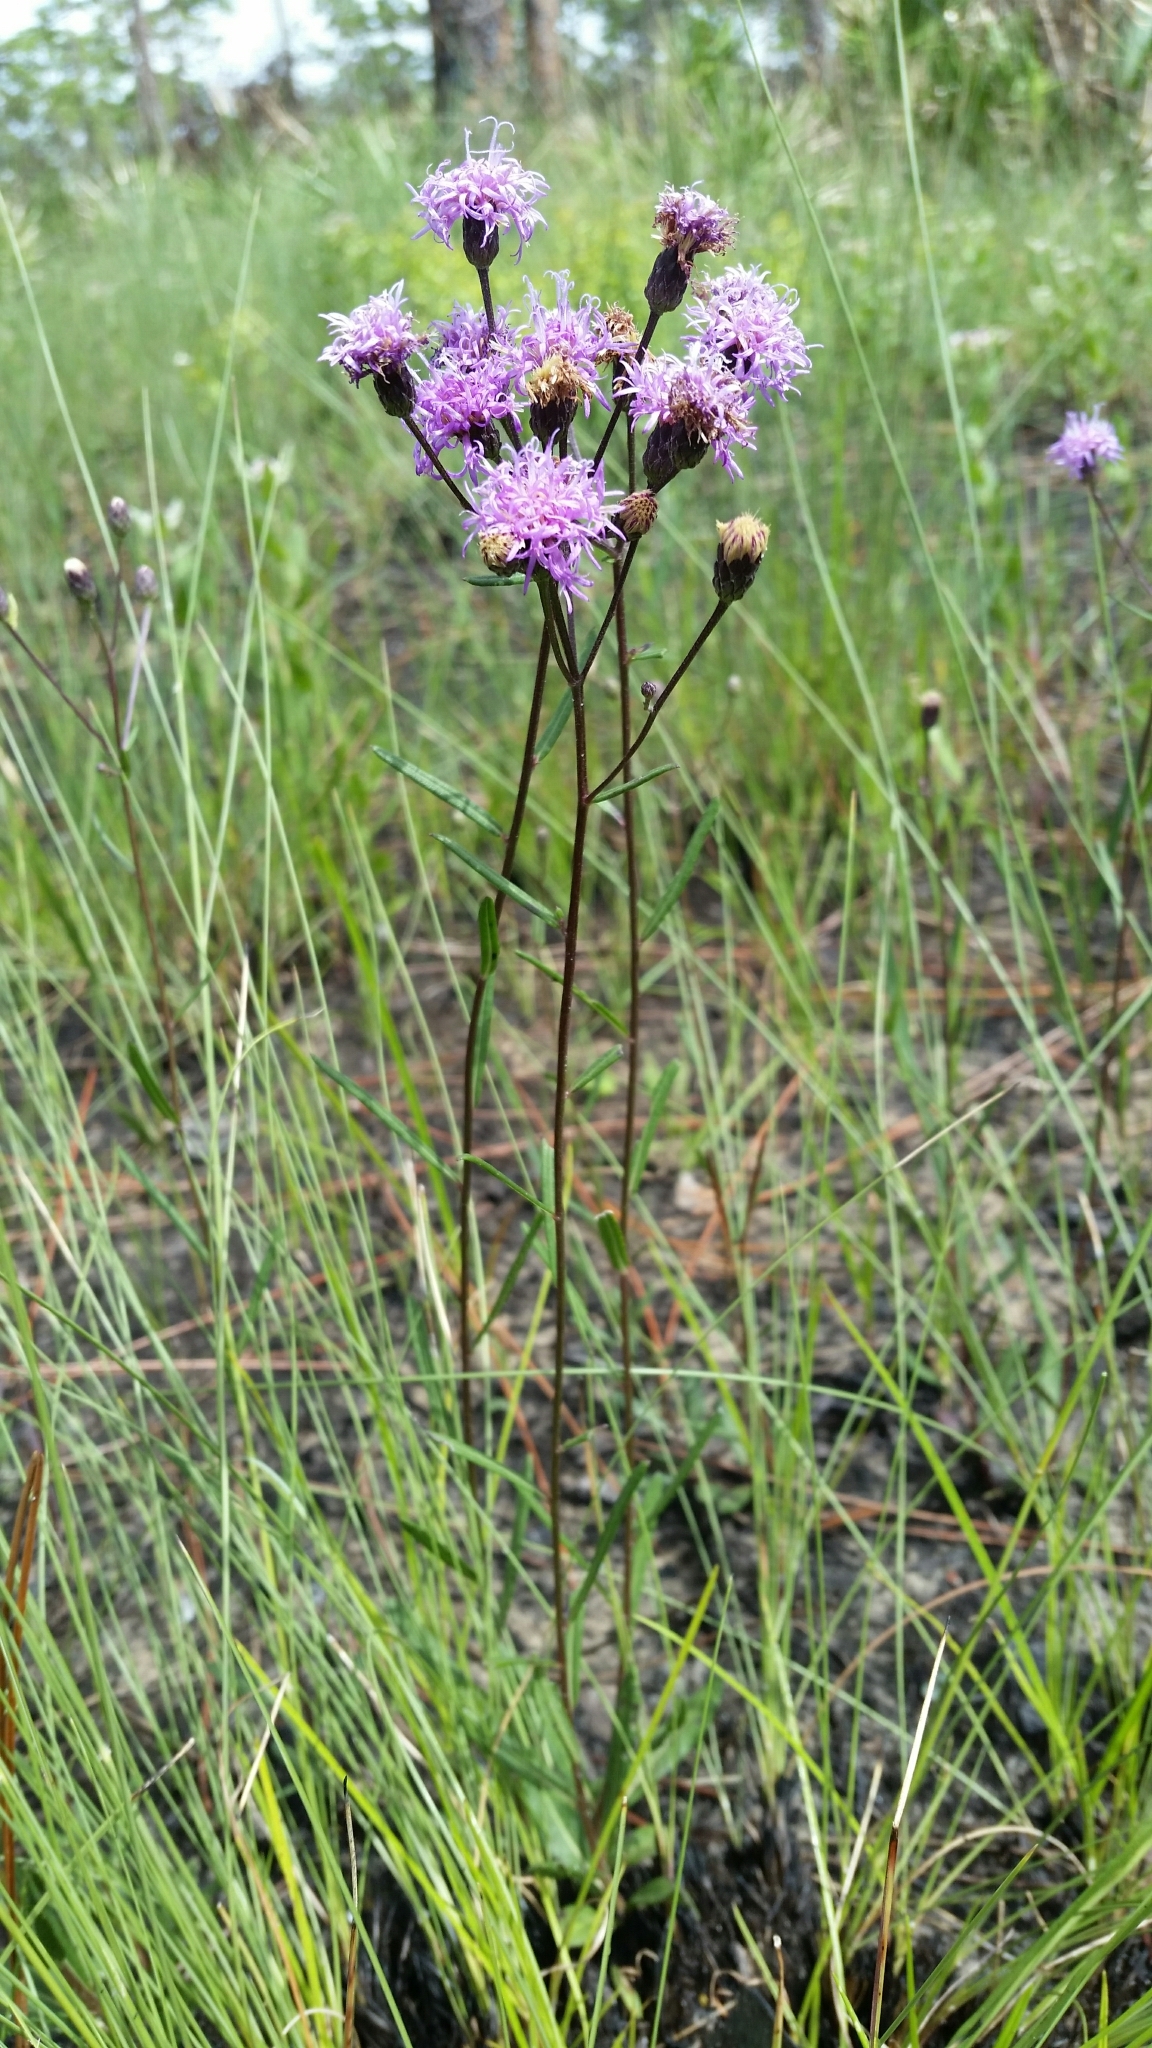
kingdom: Plantae
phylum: Tracheophyta
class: Magnoliopsida
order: Asterales
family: Asteraceae
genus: Vernonia
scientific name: Vernonia blodgettii
